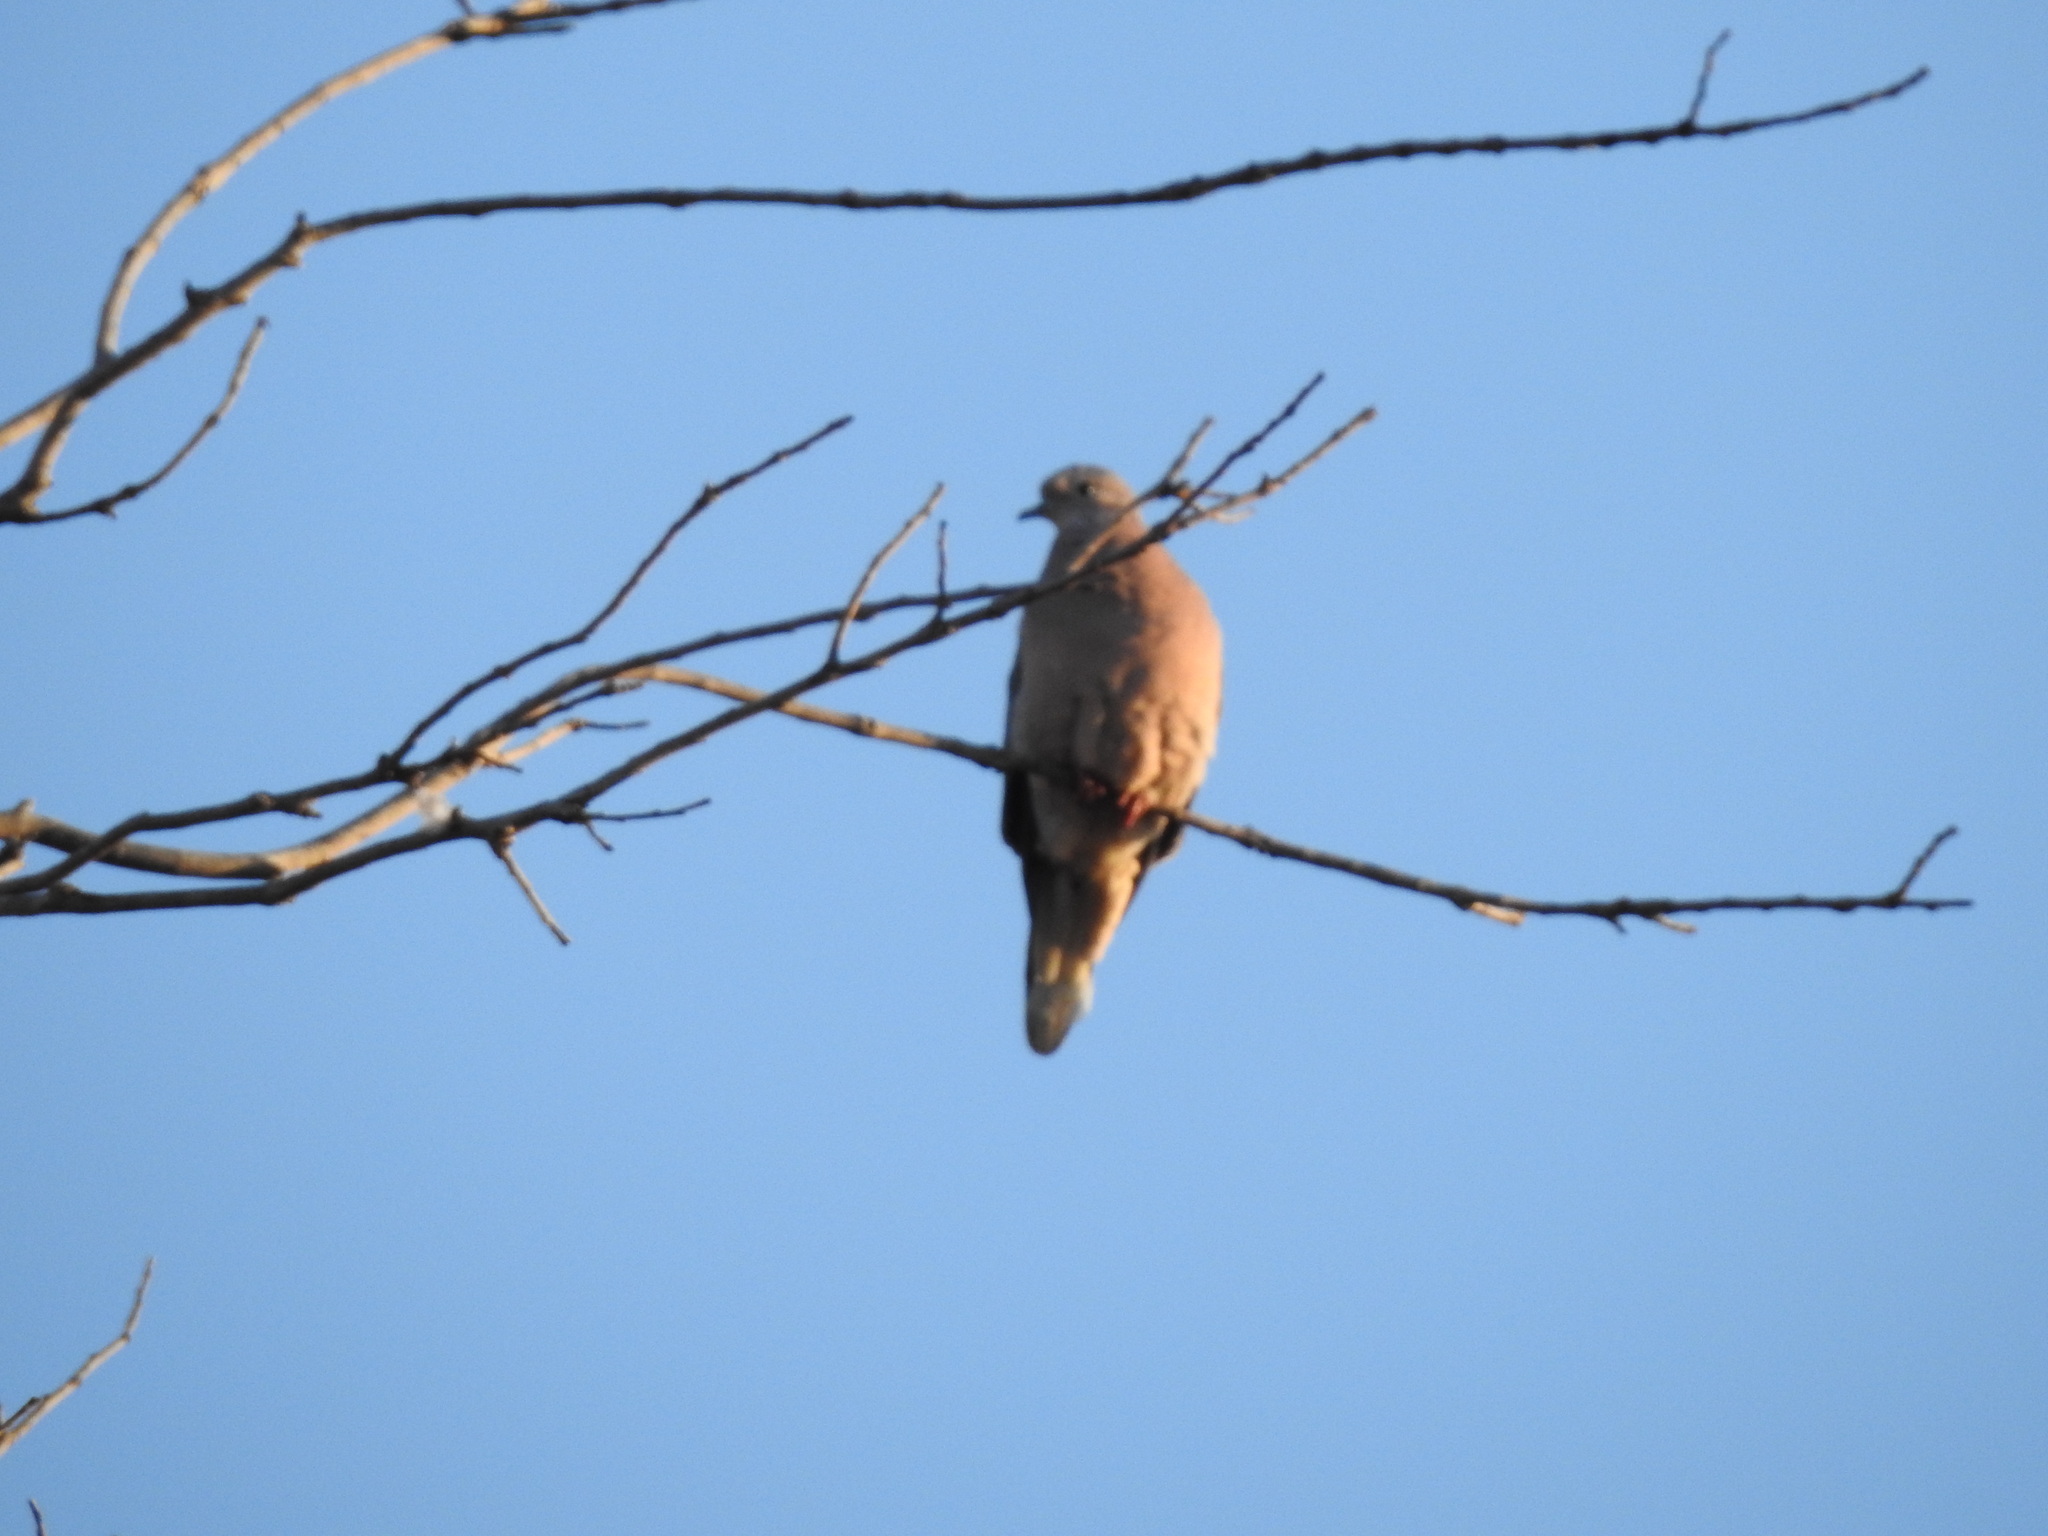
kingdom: Animalia
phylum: Chordata
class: Aves
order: Columbiformes
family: Columbidae
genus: Zenaida
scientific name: Zenaida auriculata
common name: Eared dove
